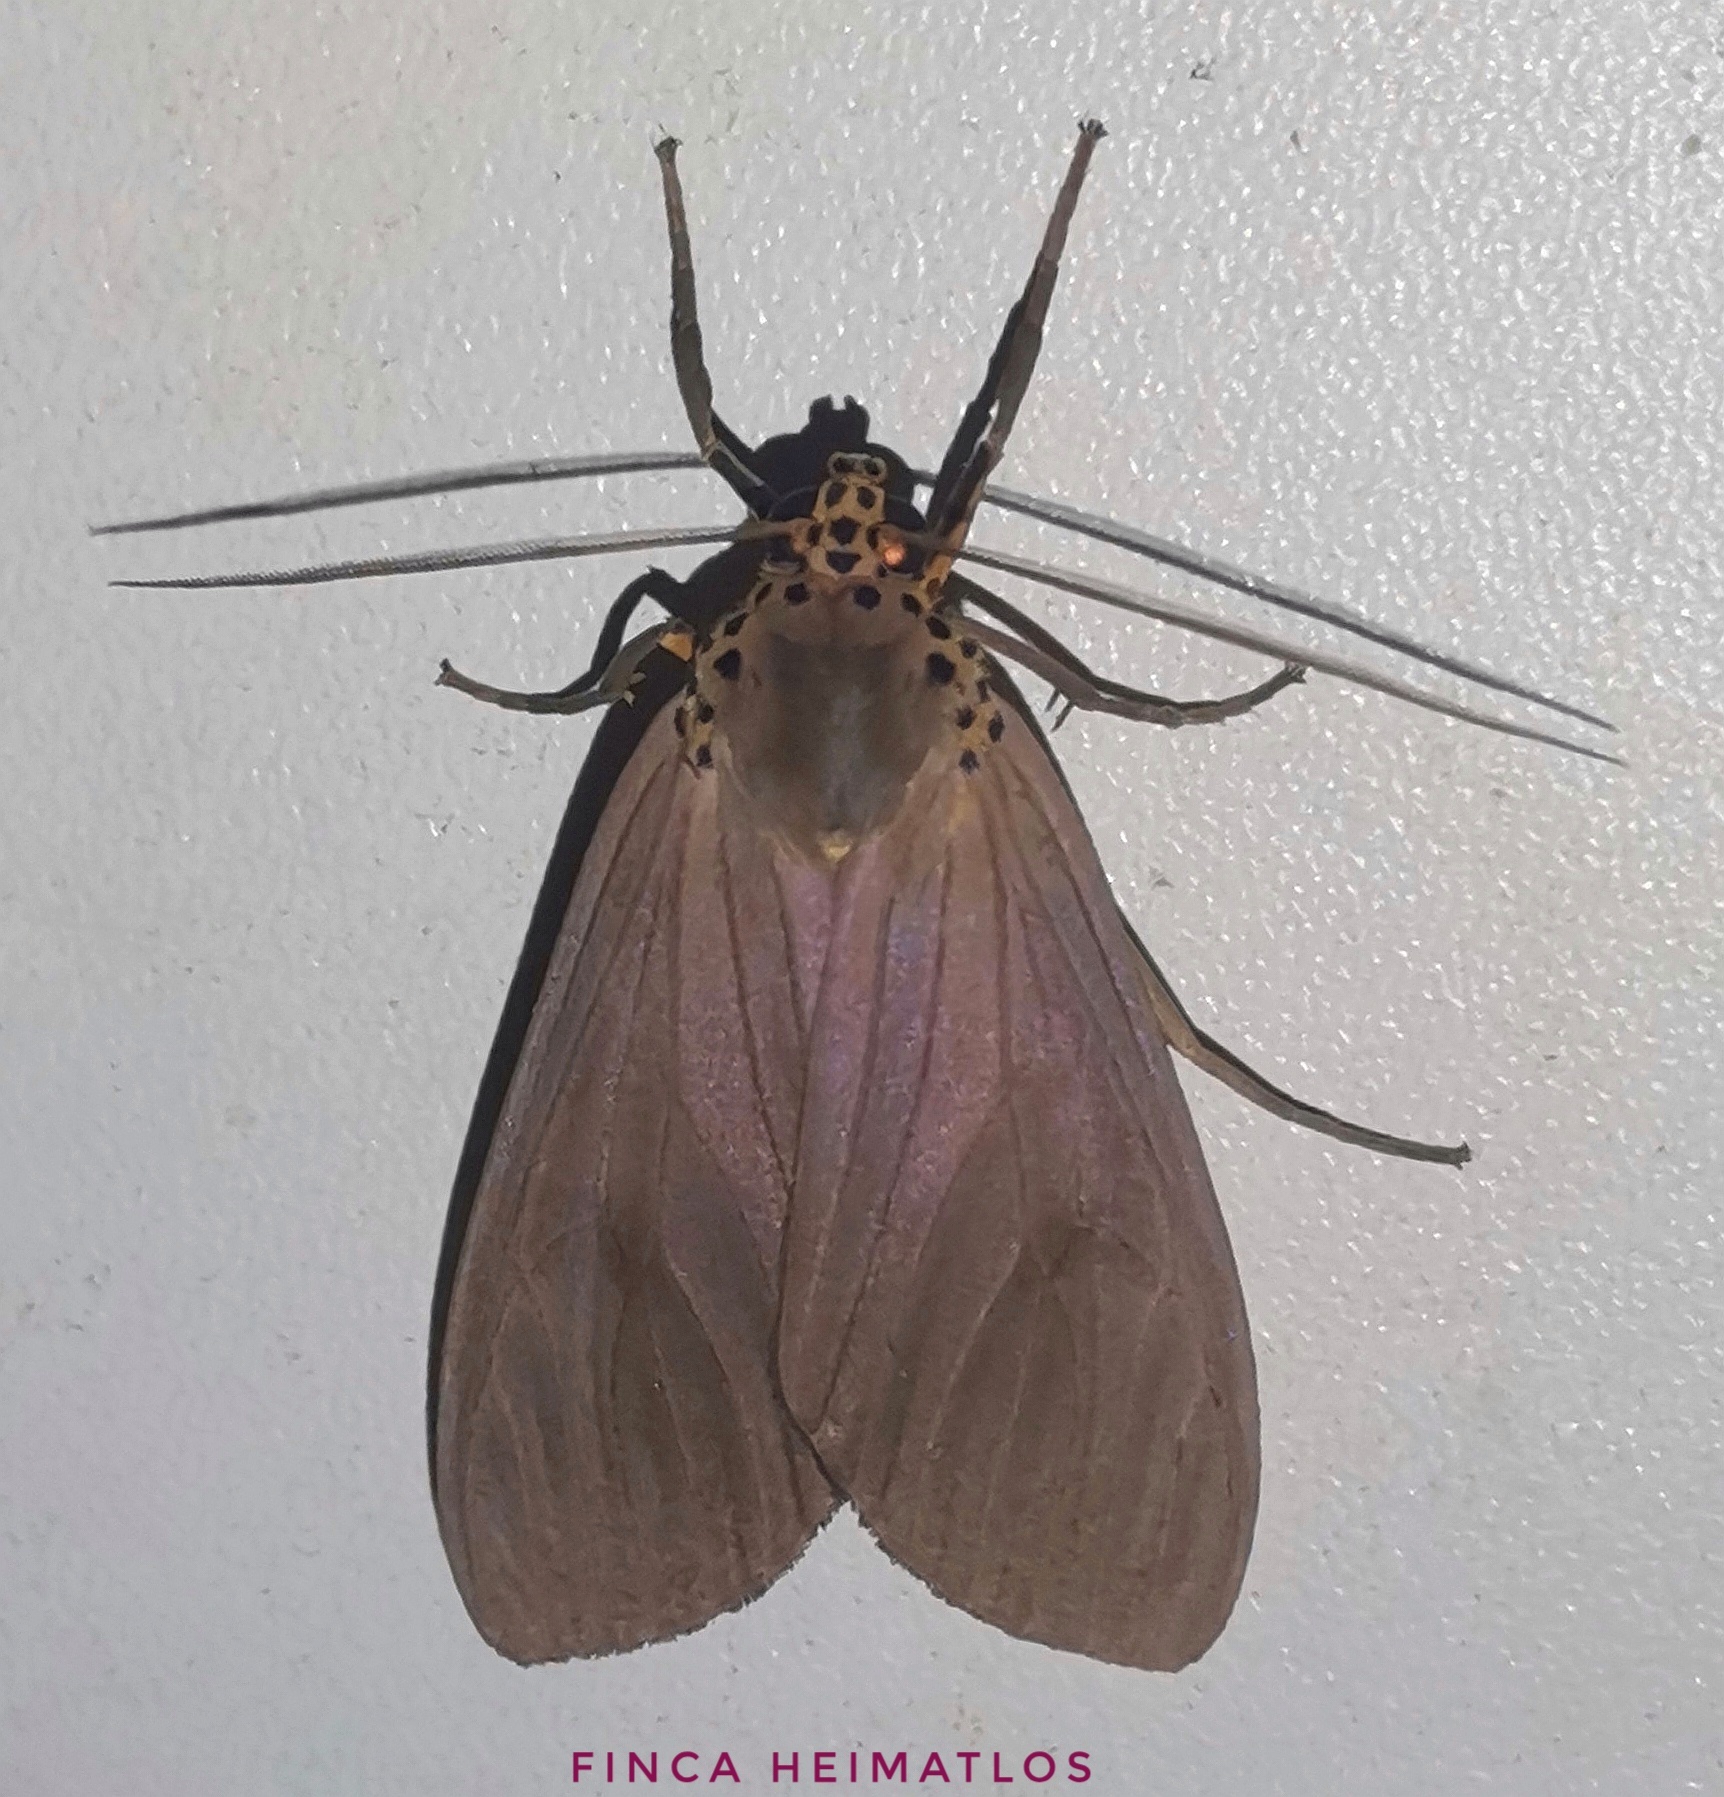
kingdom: Animalia
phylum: Arthropoda
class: Insecta
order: Lepidoptera
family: Erebidae
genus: Pelochyta
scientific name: Pelochyta affinis
